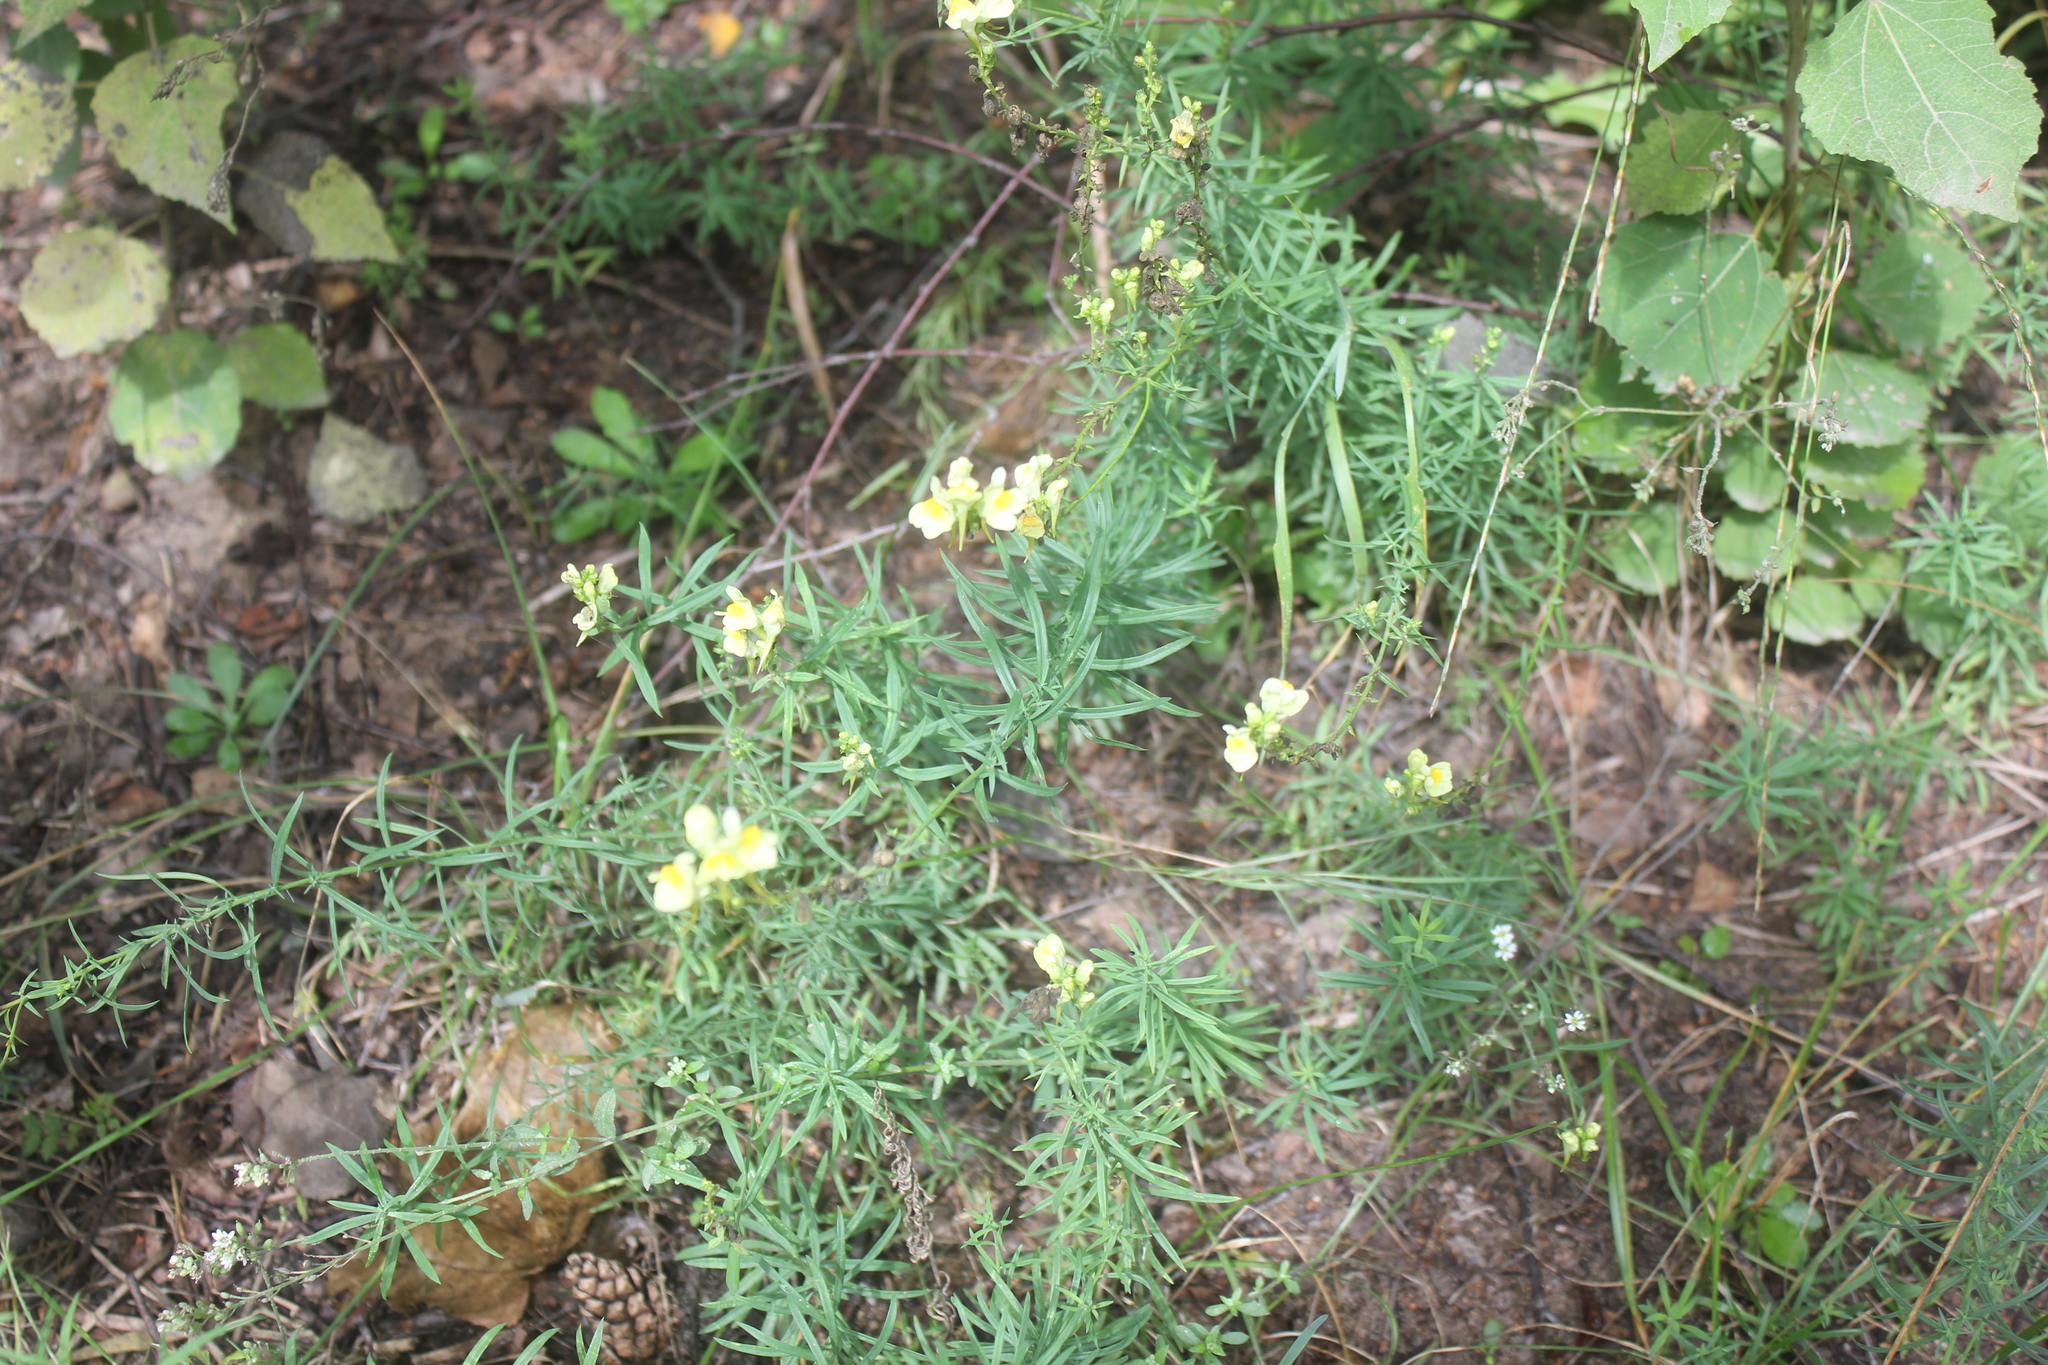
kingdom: Plantae
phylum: Tracheophyta
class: Magnoliopsida
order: Lamiales
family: Plantaginaceae
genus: Linaria
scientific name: Linaria vulgaris
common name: Butter and eggs
